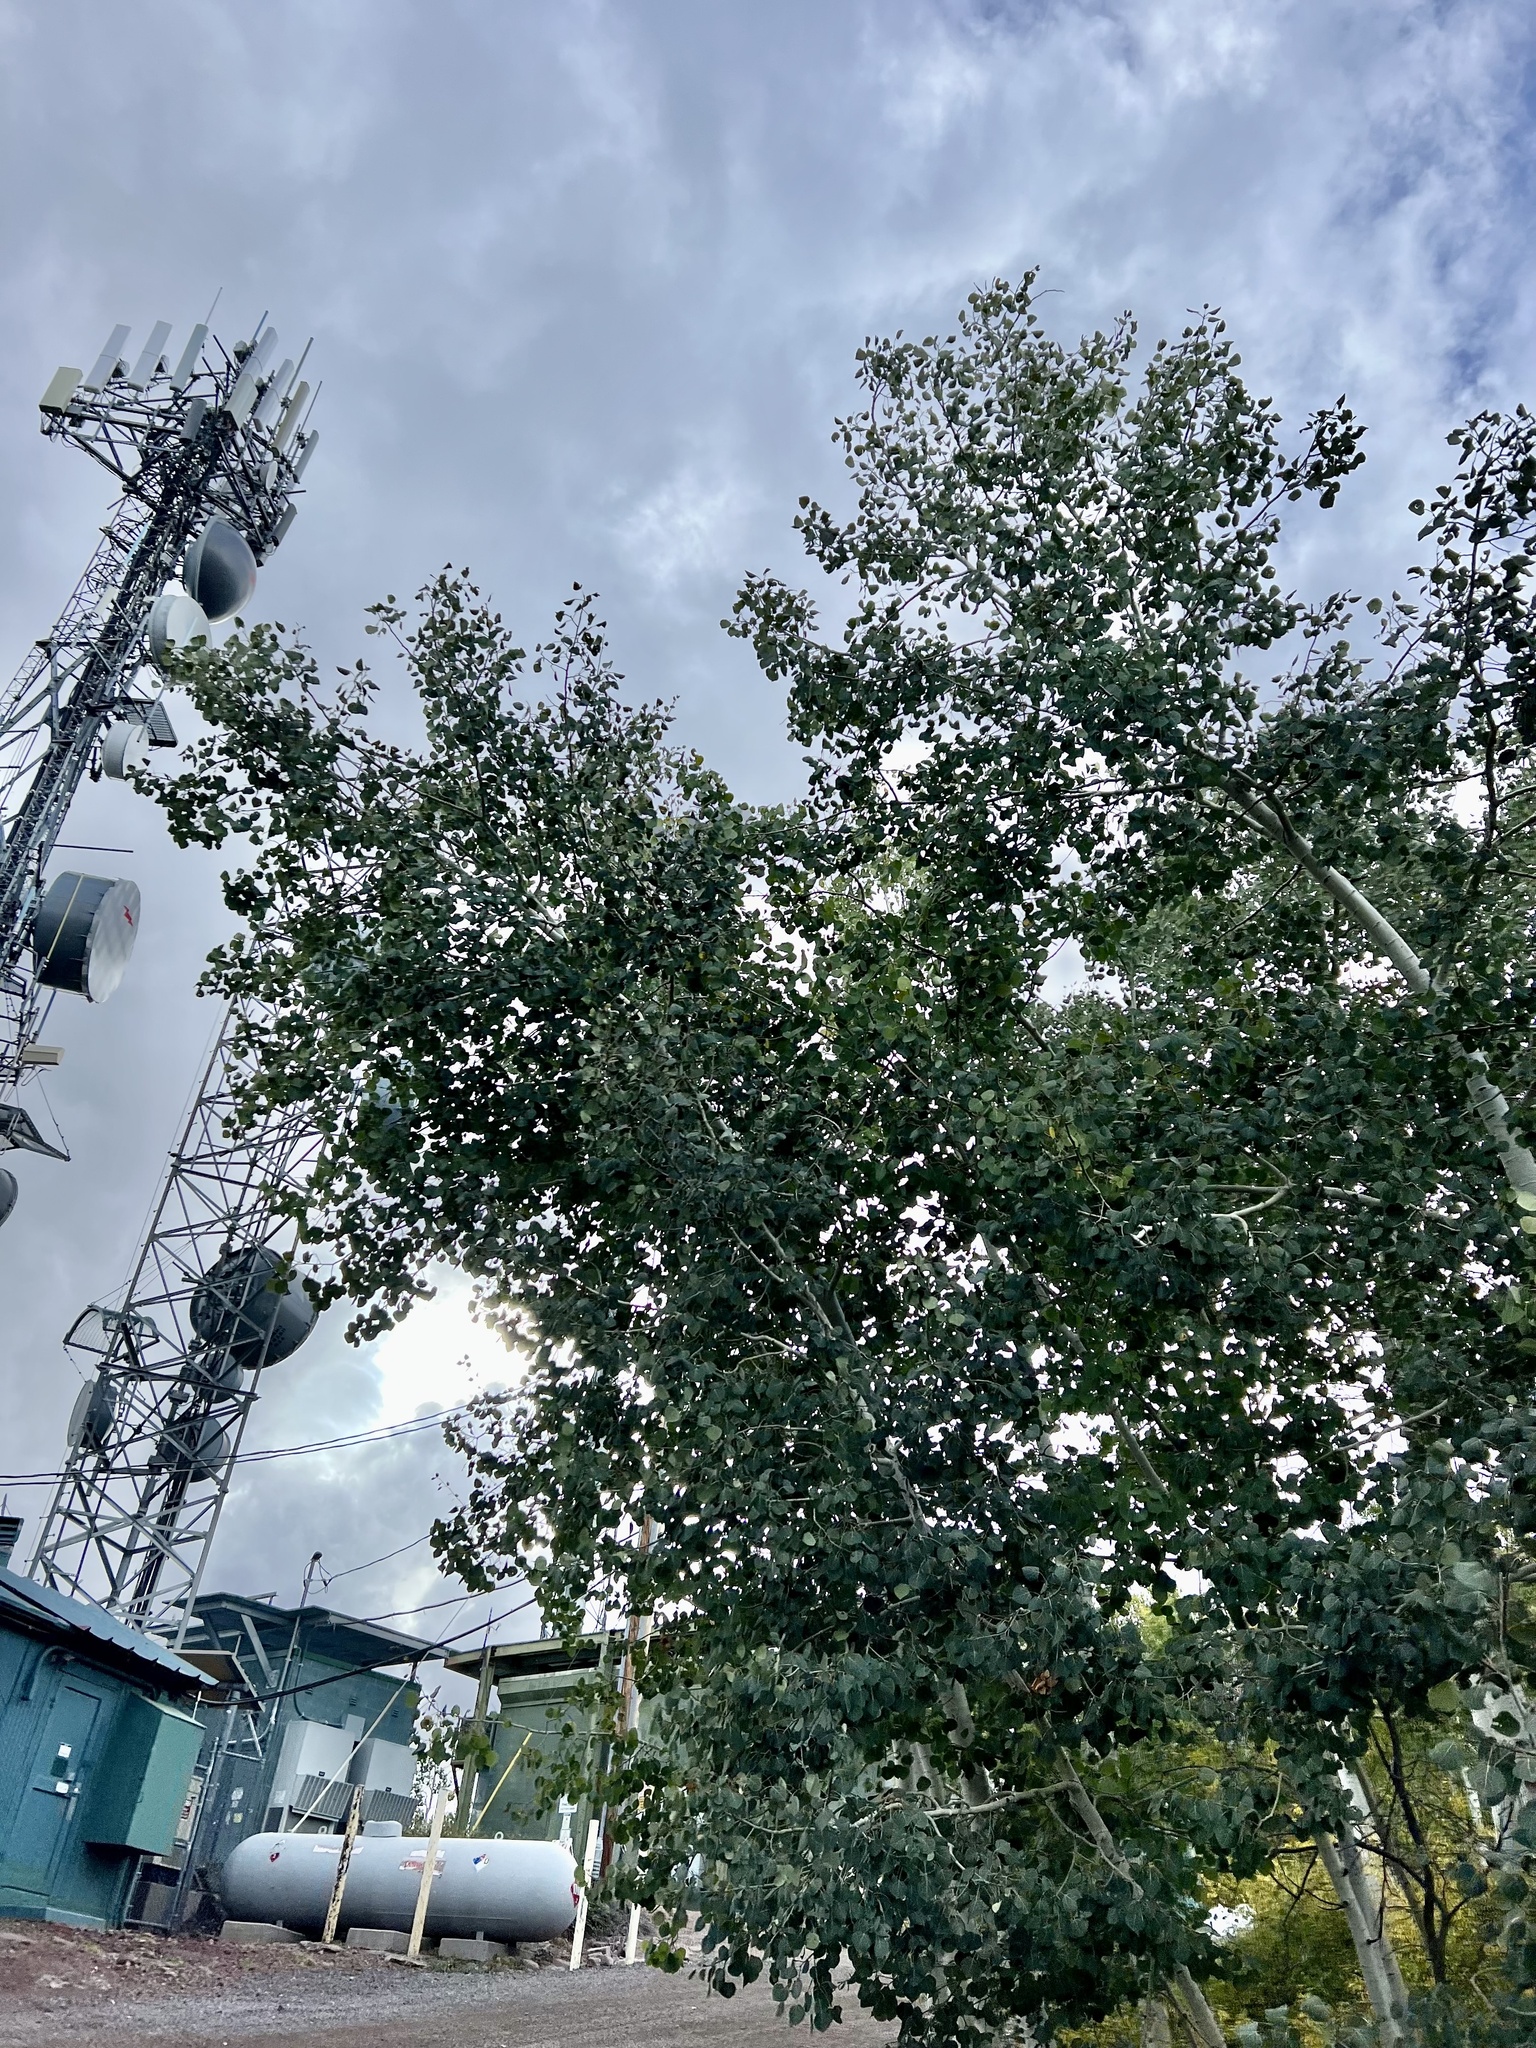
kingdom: Plantae
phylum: Tracheophyta
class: Magnoliopsida
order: Malpighiales
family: Salicaceae
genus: Populus
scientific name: Populus tremuloides
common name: Quaking aspen
